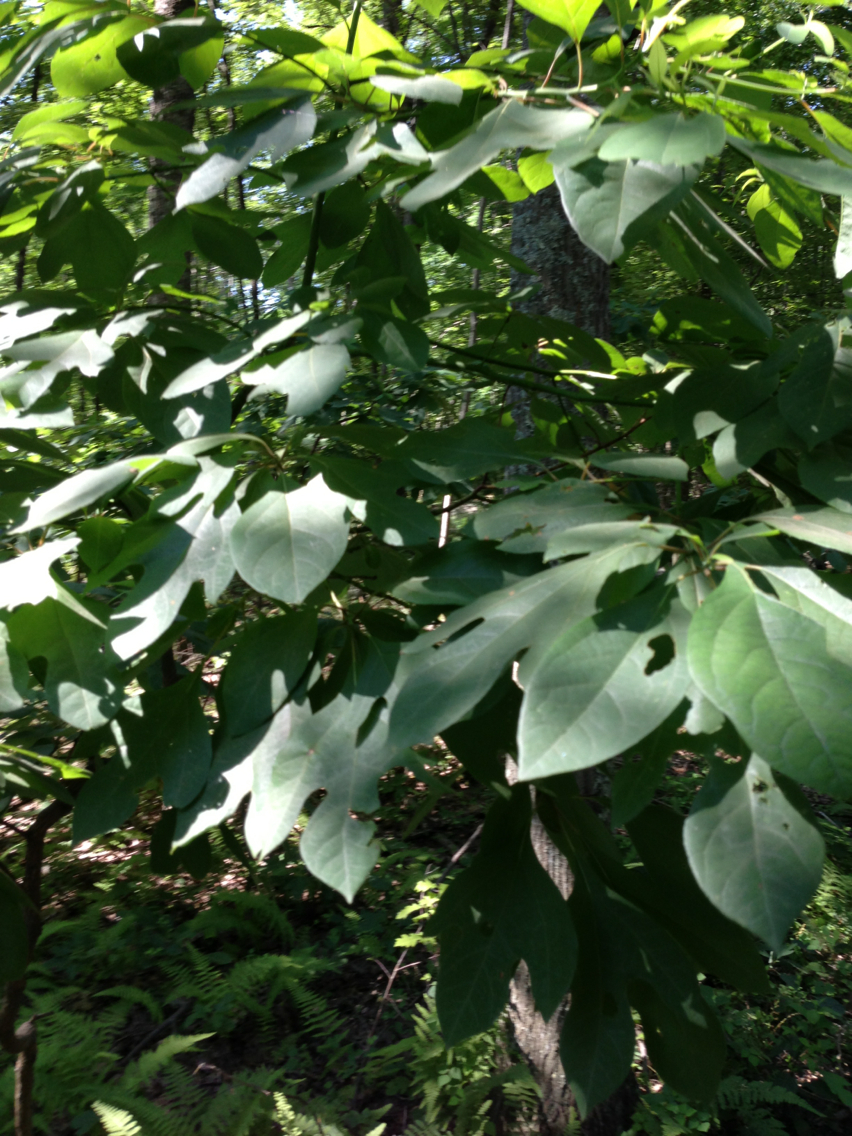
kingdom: Plantae
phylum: Tracheophyta
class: Magnoliopsida
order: Laurales
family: Lauraceae
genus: Sassafras
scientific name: Sassafras albidum
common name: Sassafras
